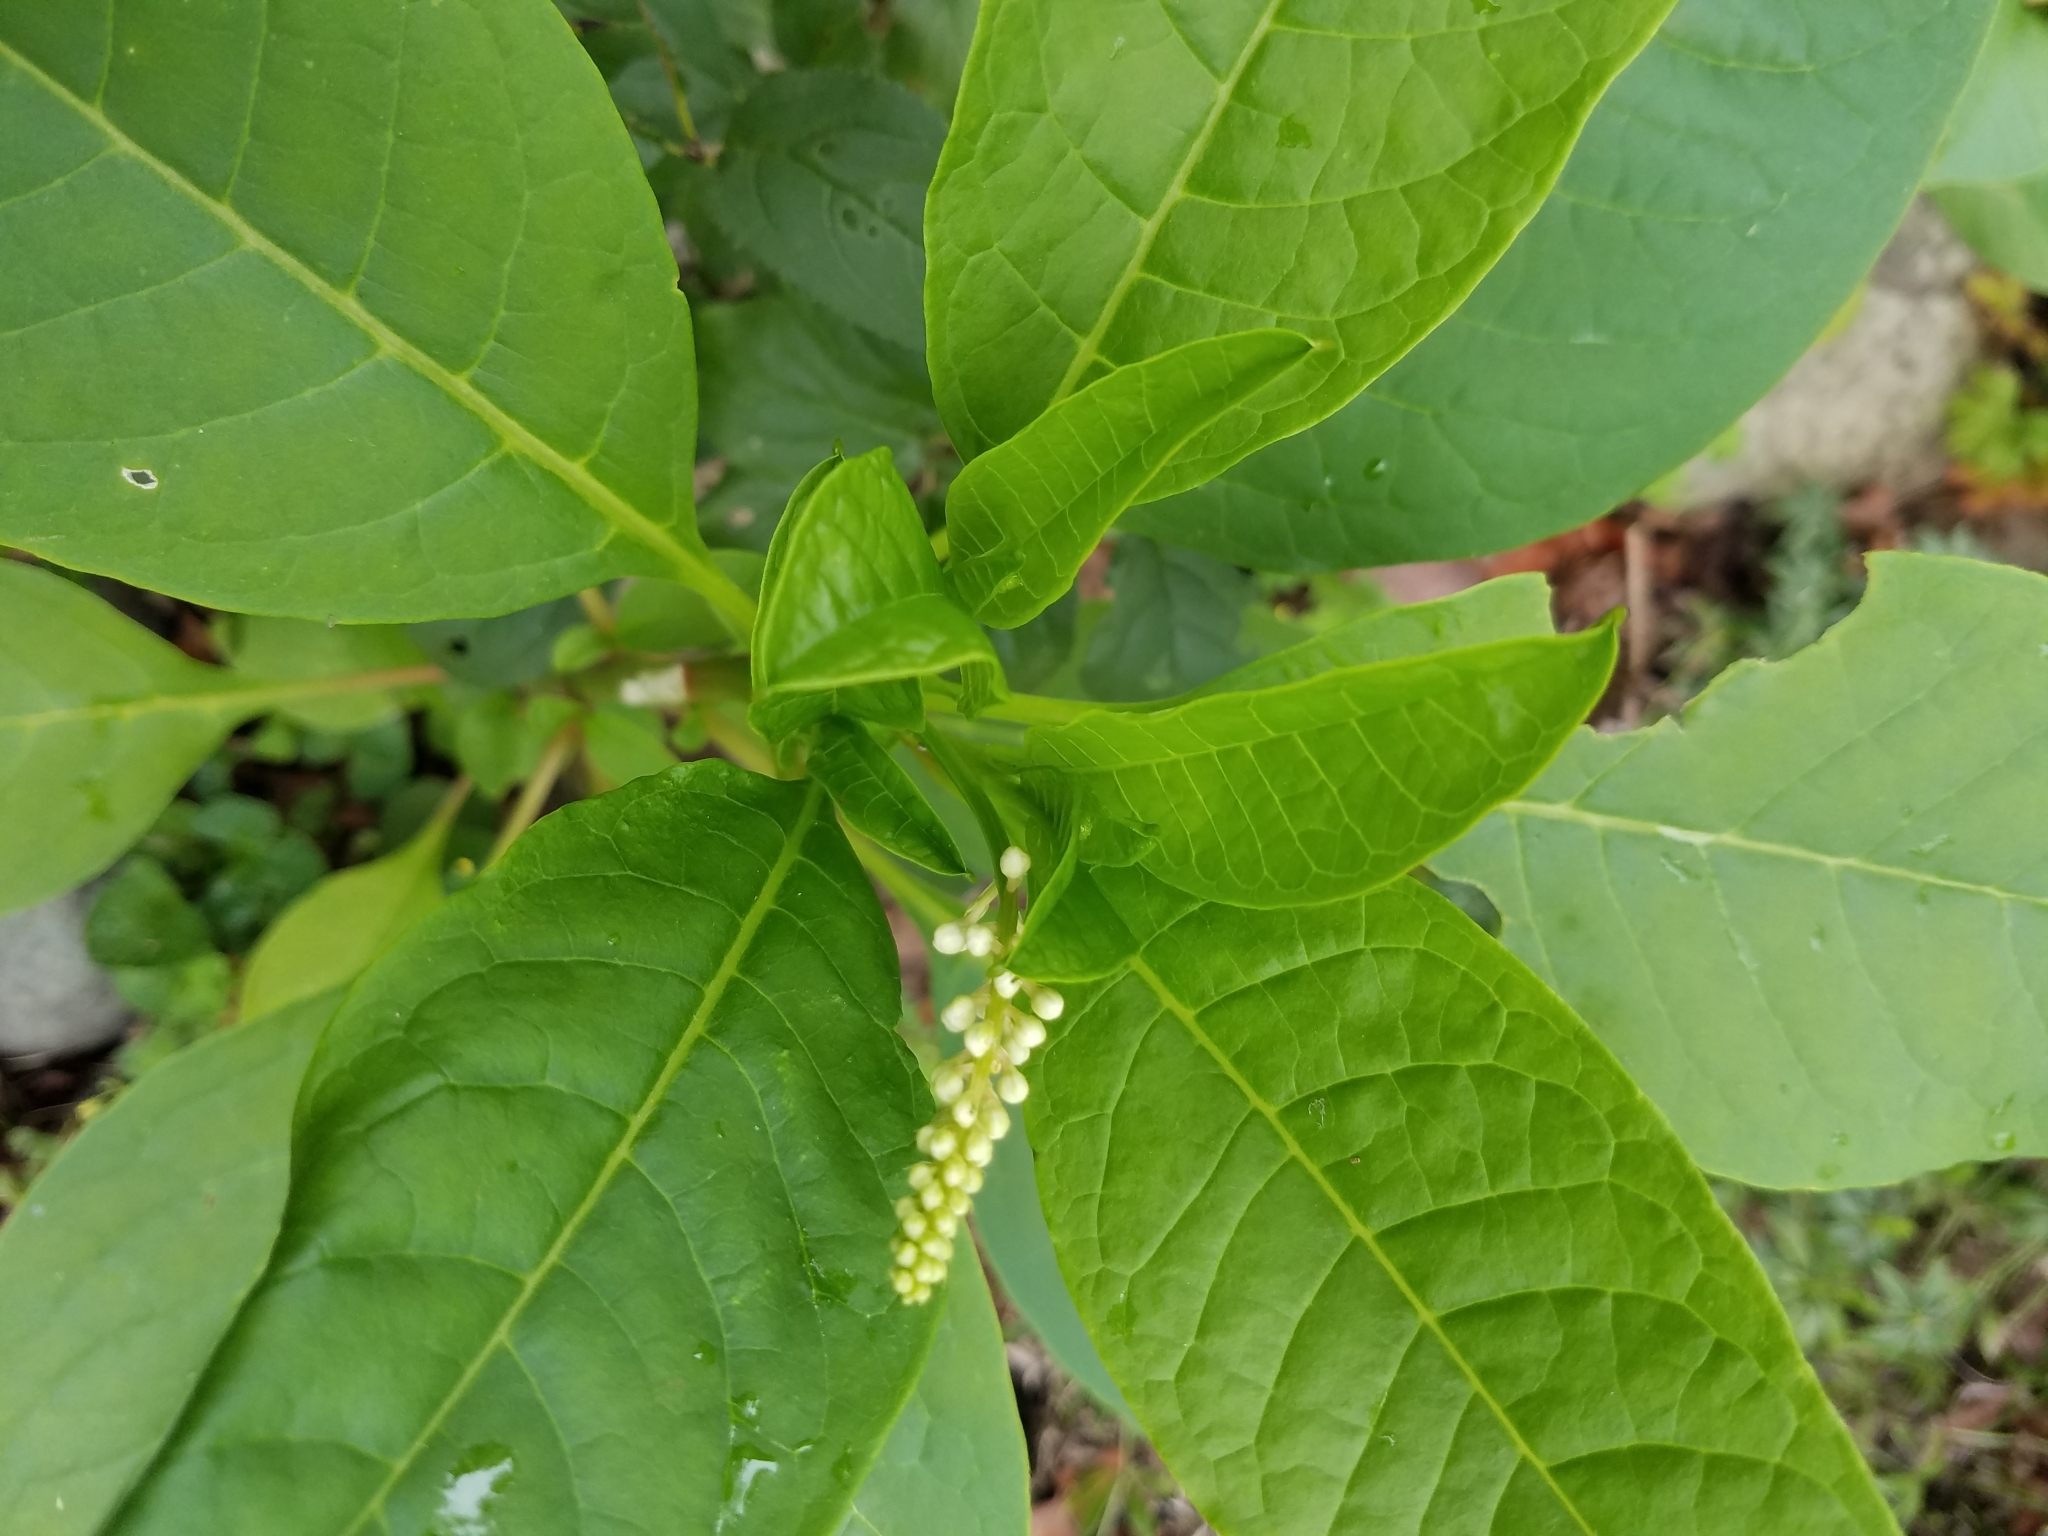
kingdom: Plantae
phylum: Tracheophyta
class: Magnoliopsida
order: Caryophyllales
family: Phytolaccaceae
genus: Phytolacca
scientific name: Phytolacca americana
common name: American pokeweed
